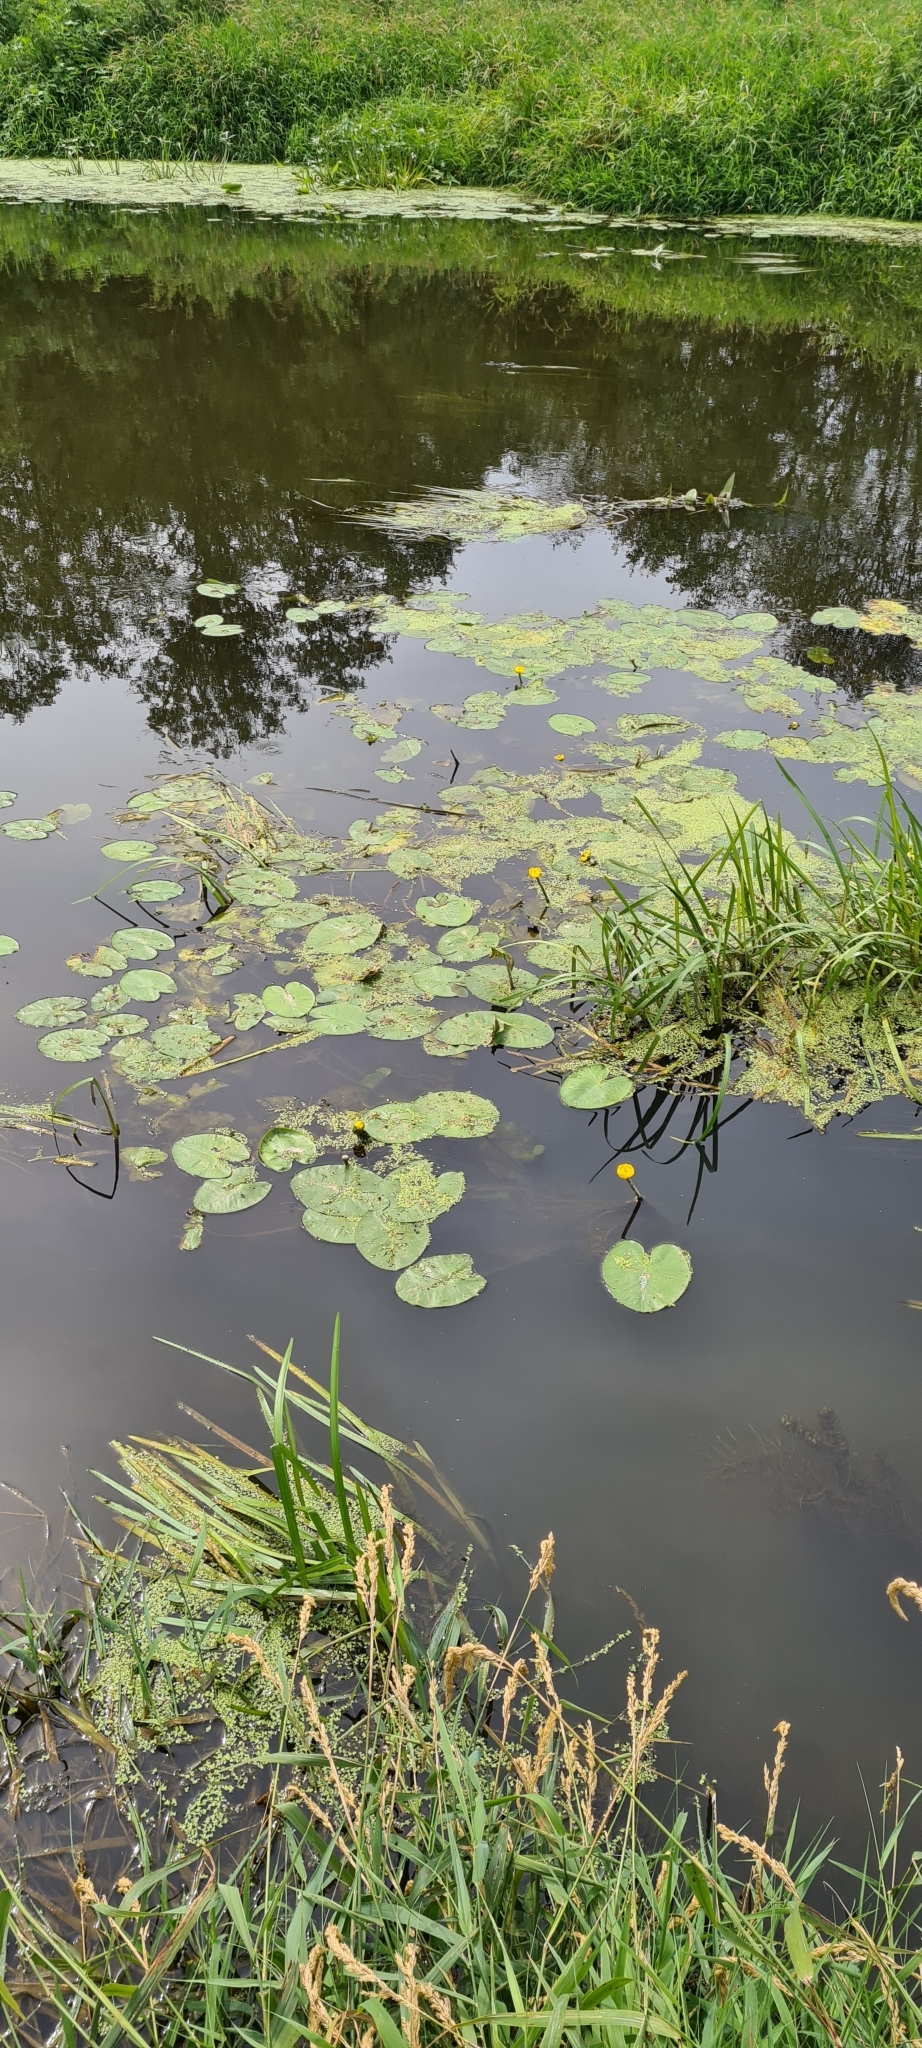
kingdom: Plantae
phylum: Tracheophyta
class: Magnoliopsida
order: Nymphaeales
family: Nymphaeaceae
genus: Nuphar
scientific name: Nuphar lutea
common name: Yellow water-lily
